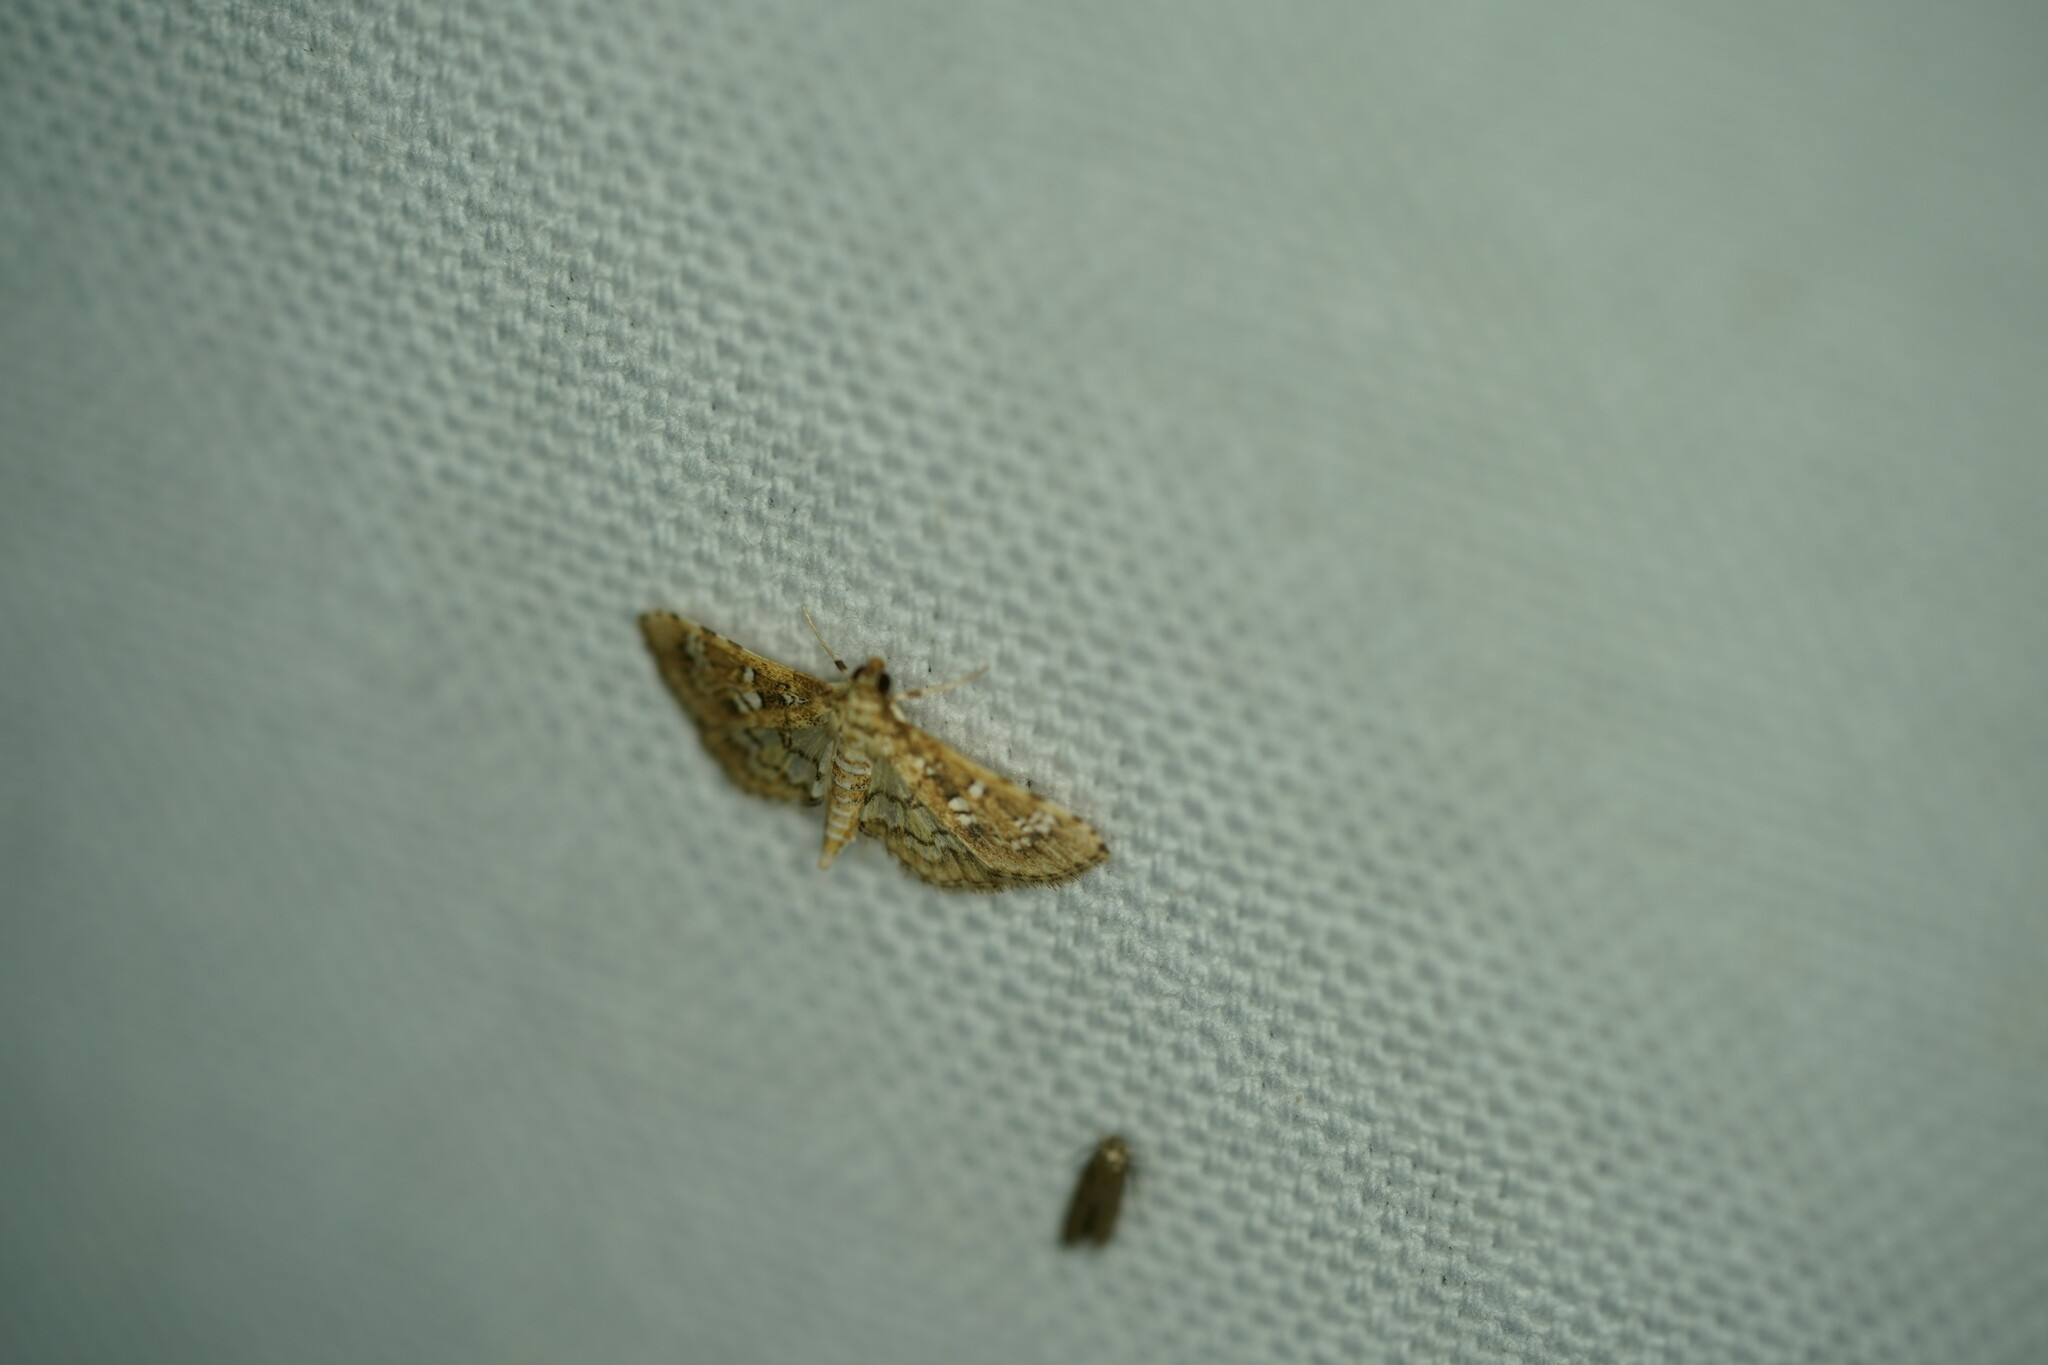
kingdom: Animalia
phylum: Arthropoda
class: Insecta
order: Lepidoptera
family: Crambidae
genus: Samea
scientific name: Samea multiplicalis
